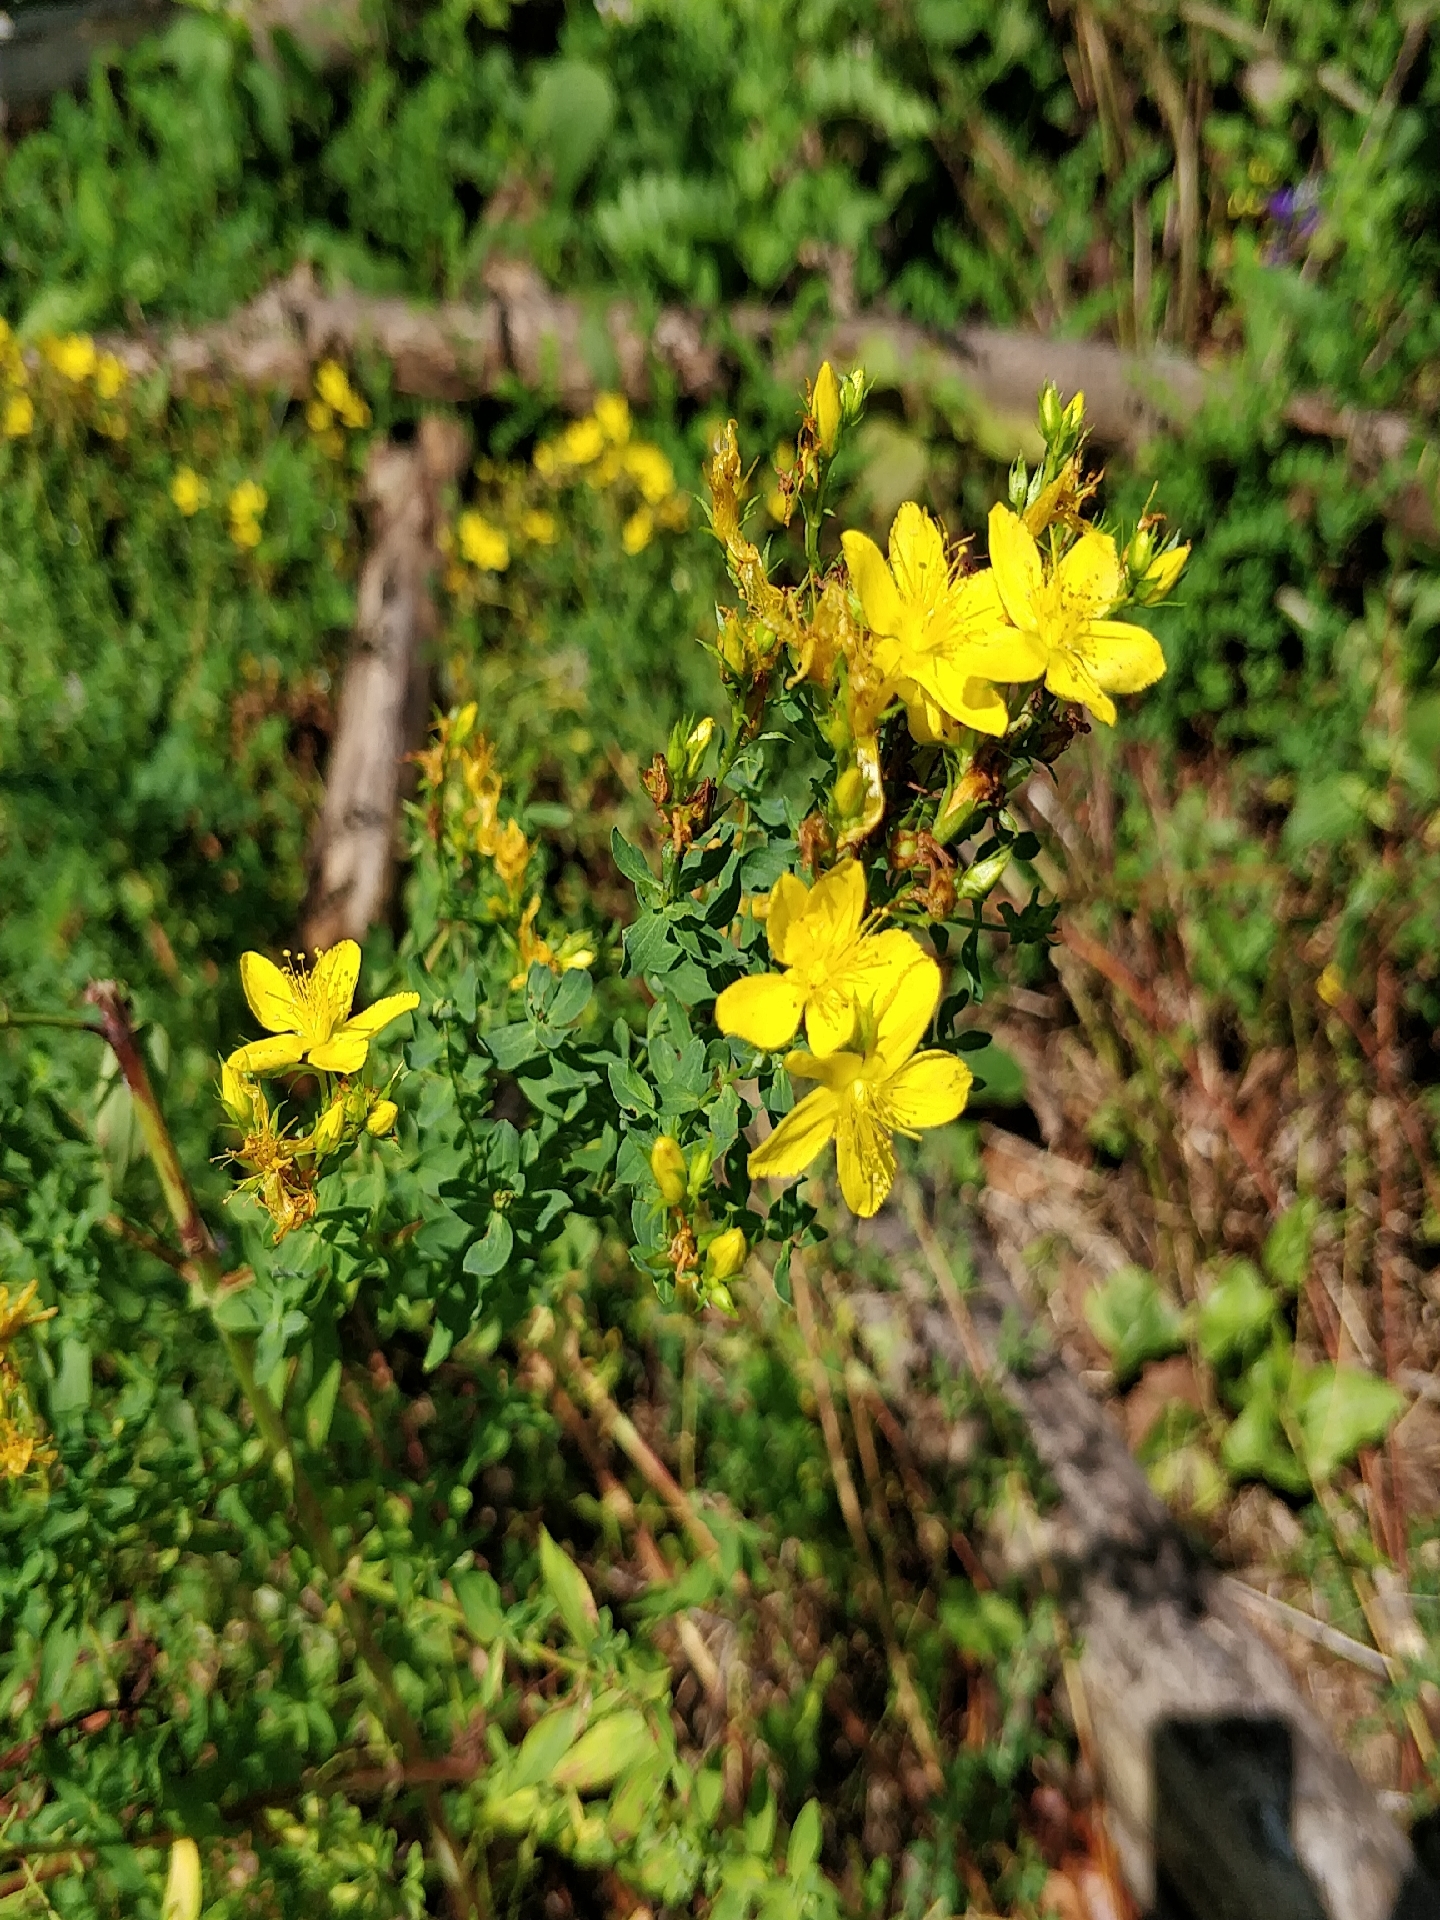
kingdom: Plantae
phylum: Tracheophyta
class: Magnoliopsida
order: Malpighiales
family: Hypericaceae
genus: Hypericum
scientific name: Hypericum perforatum
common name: Common st. johnswort
